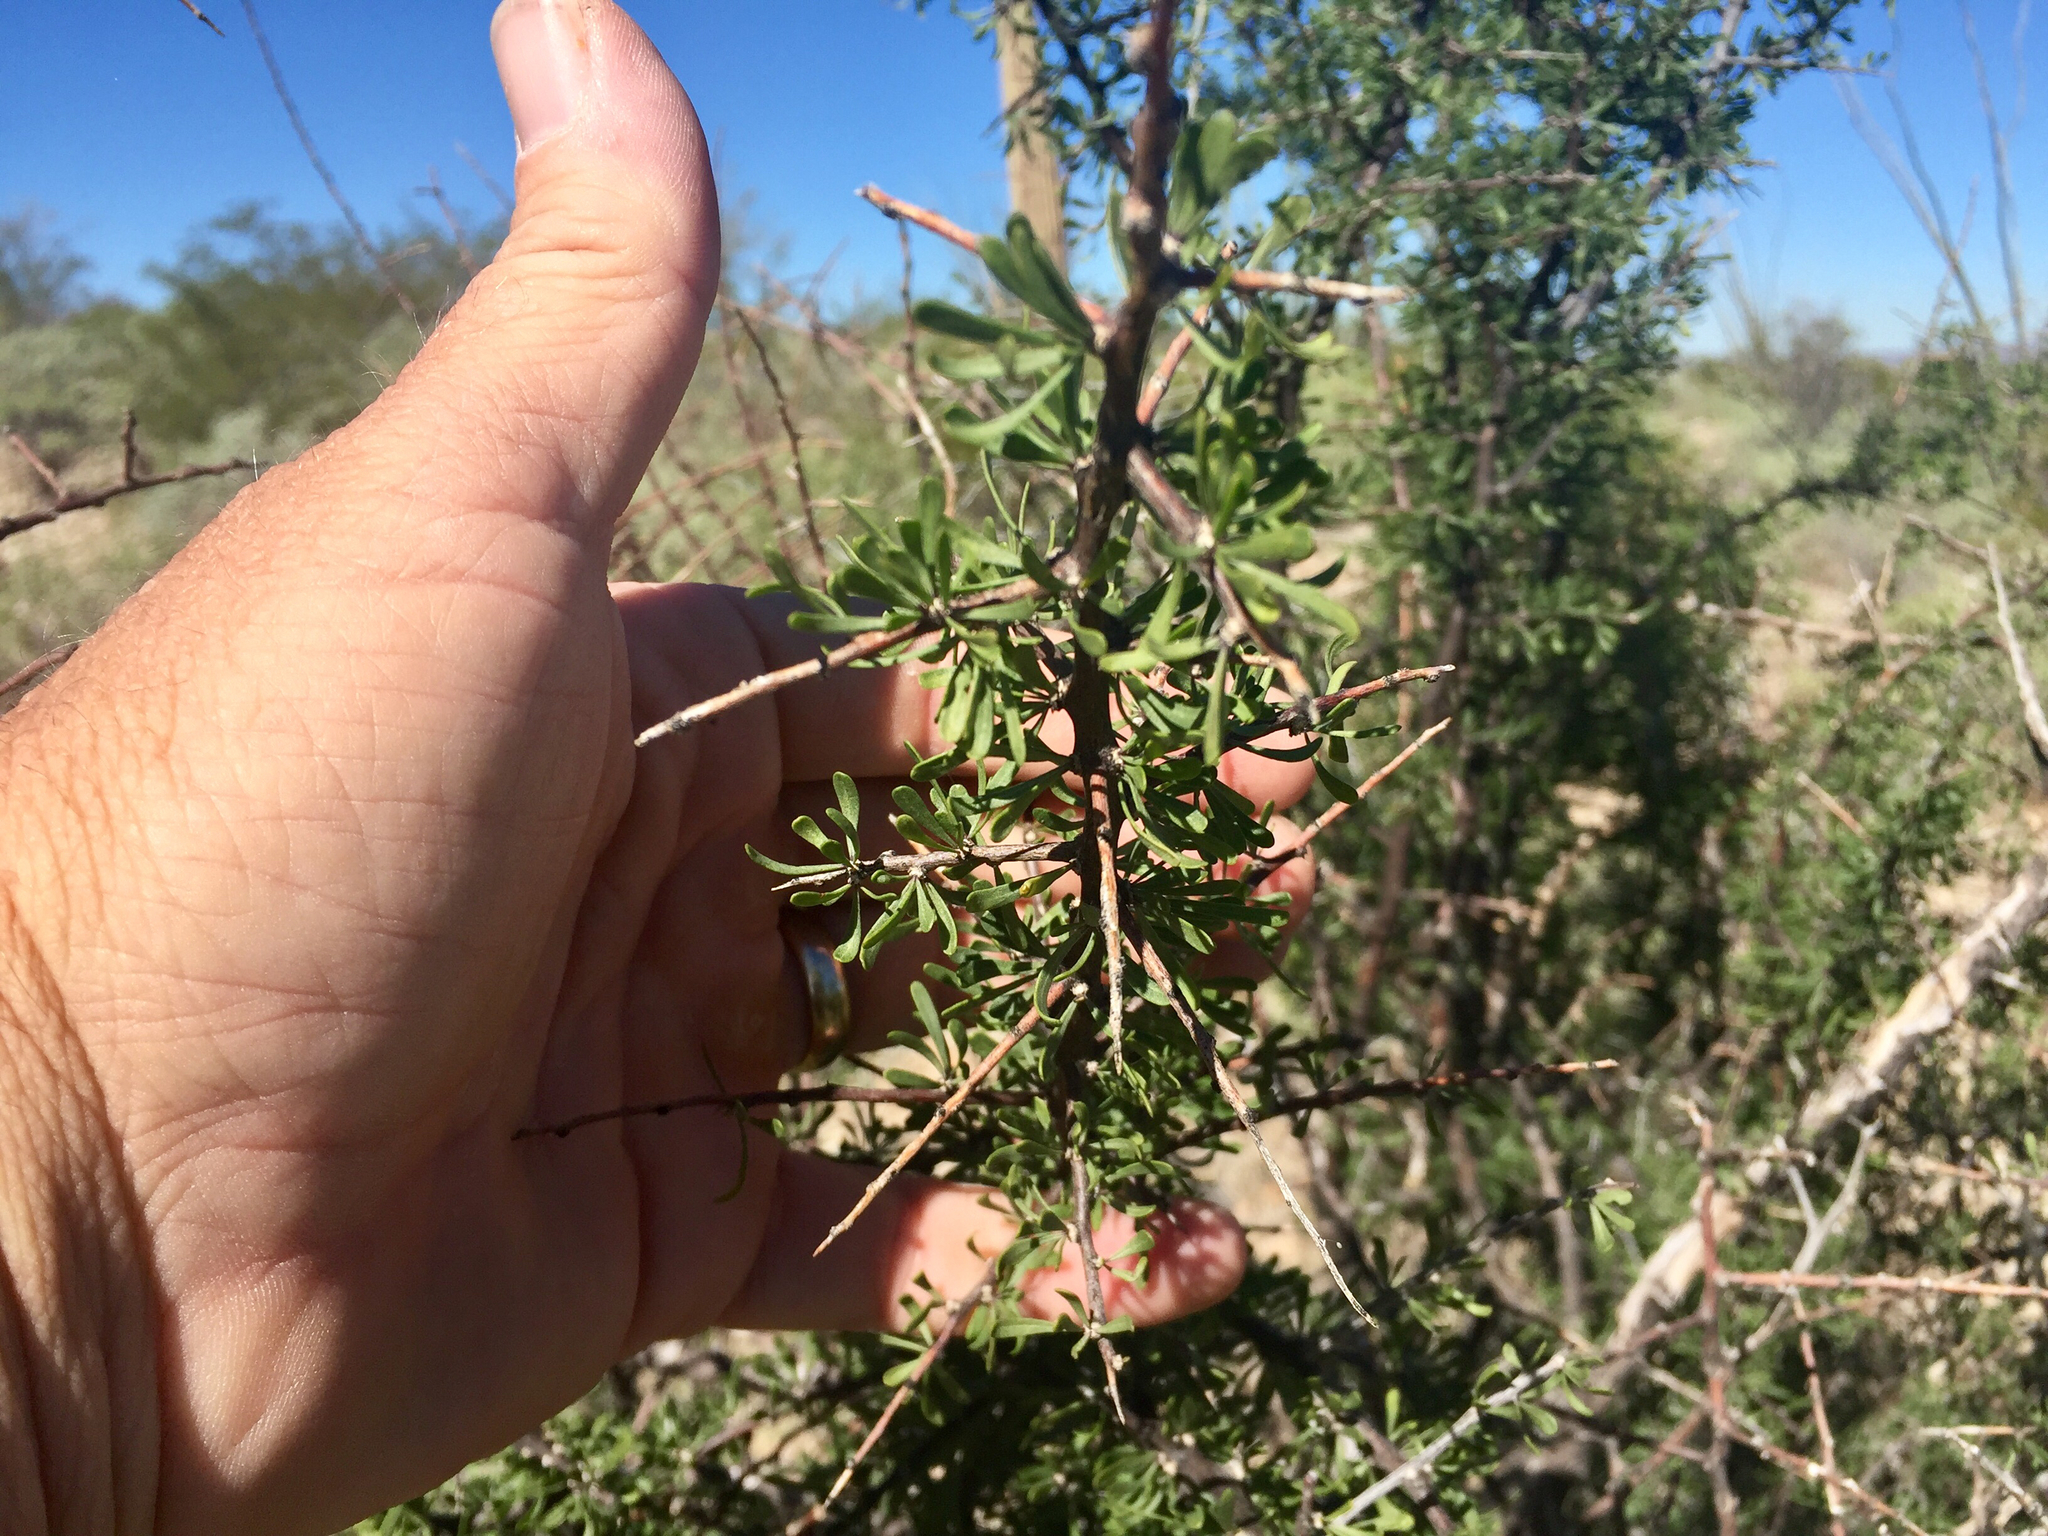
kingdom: Plantae
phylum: Tracheophyta
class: Magnoliopsida
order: Solanales
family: Solanaceae
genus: Lycium
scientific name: Lycium berlandieri
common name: Berlandier wolfberry
